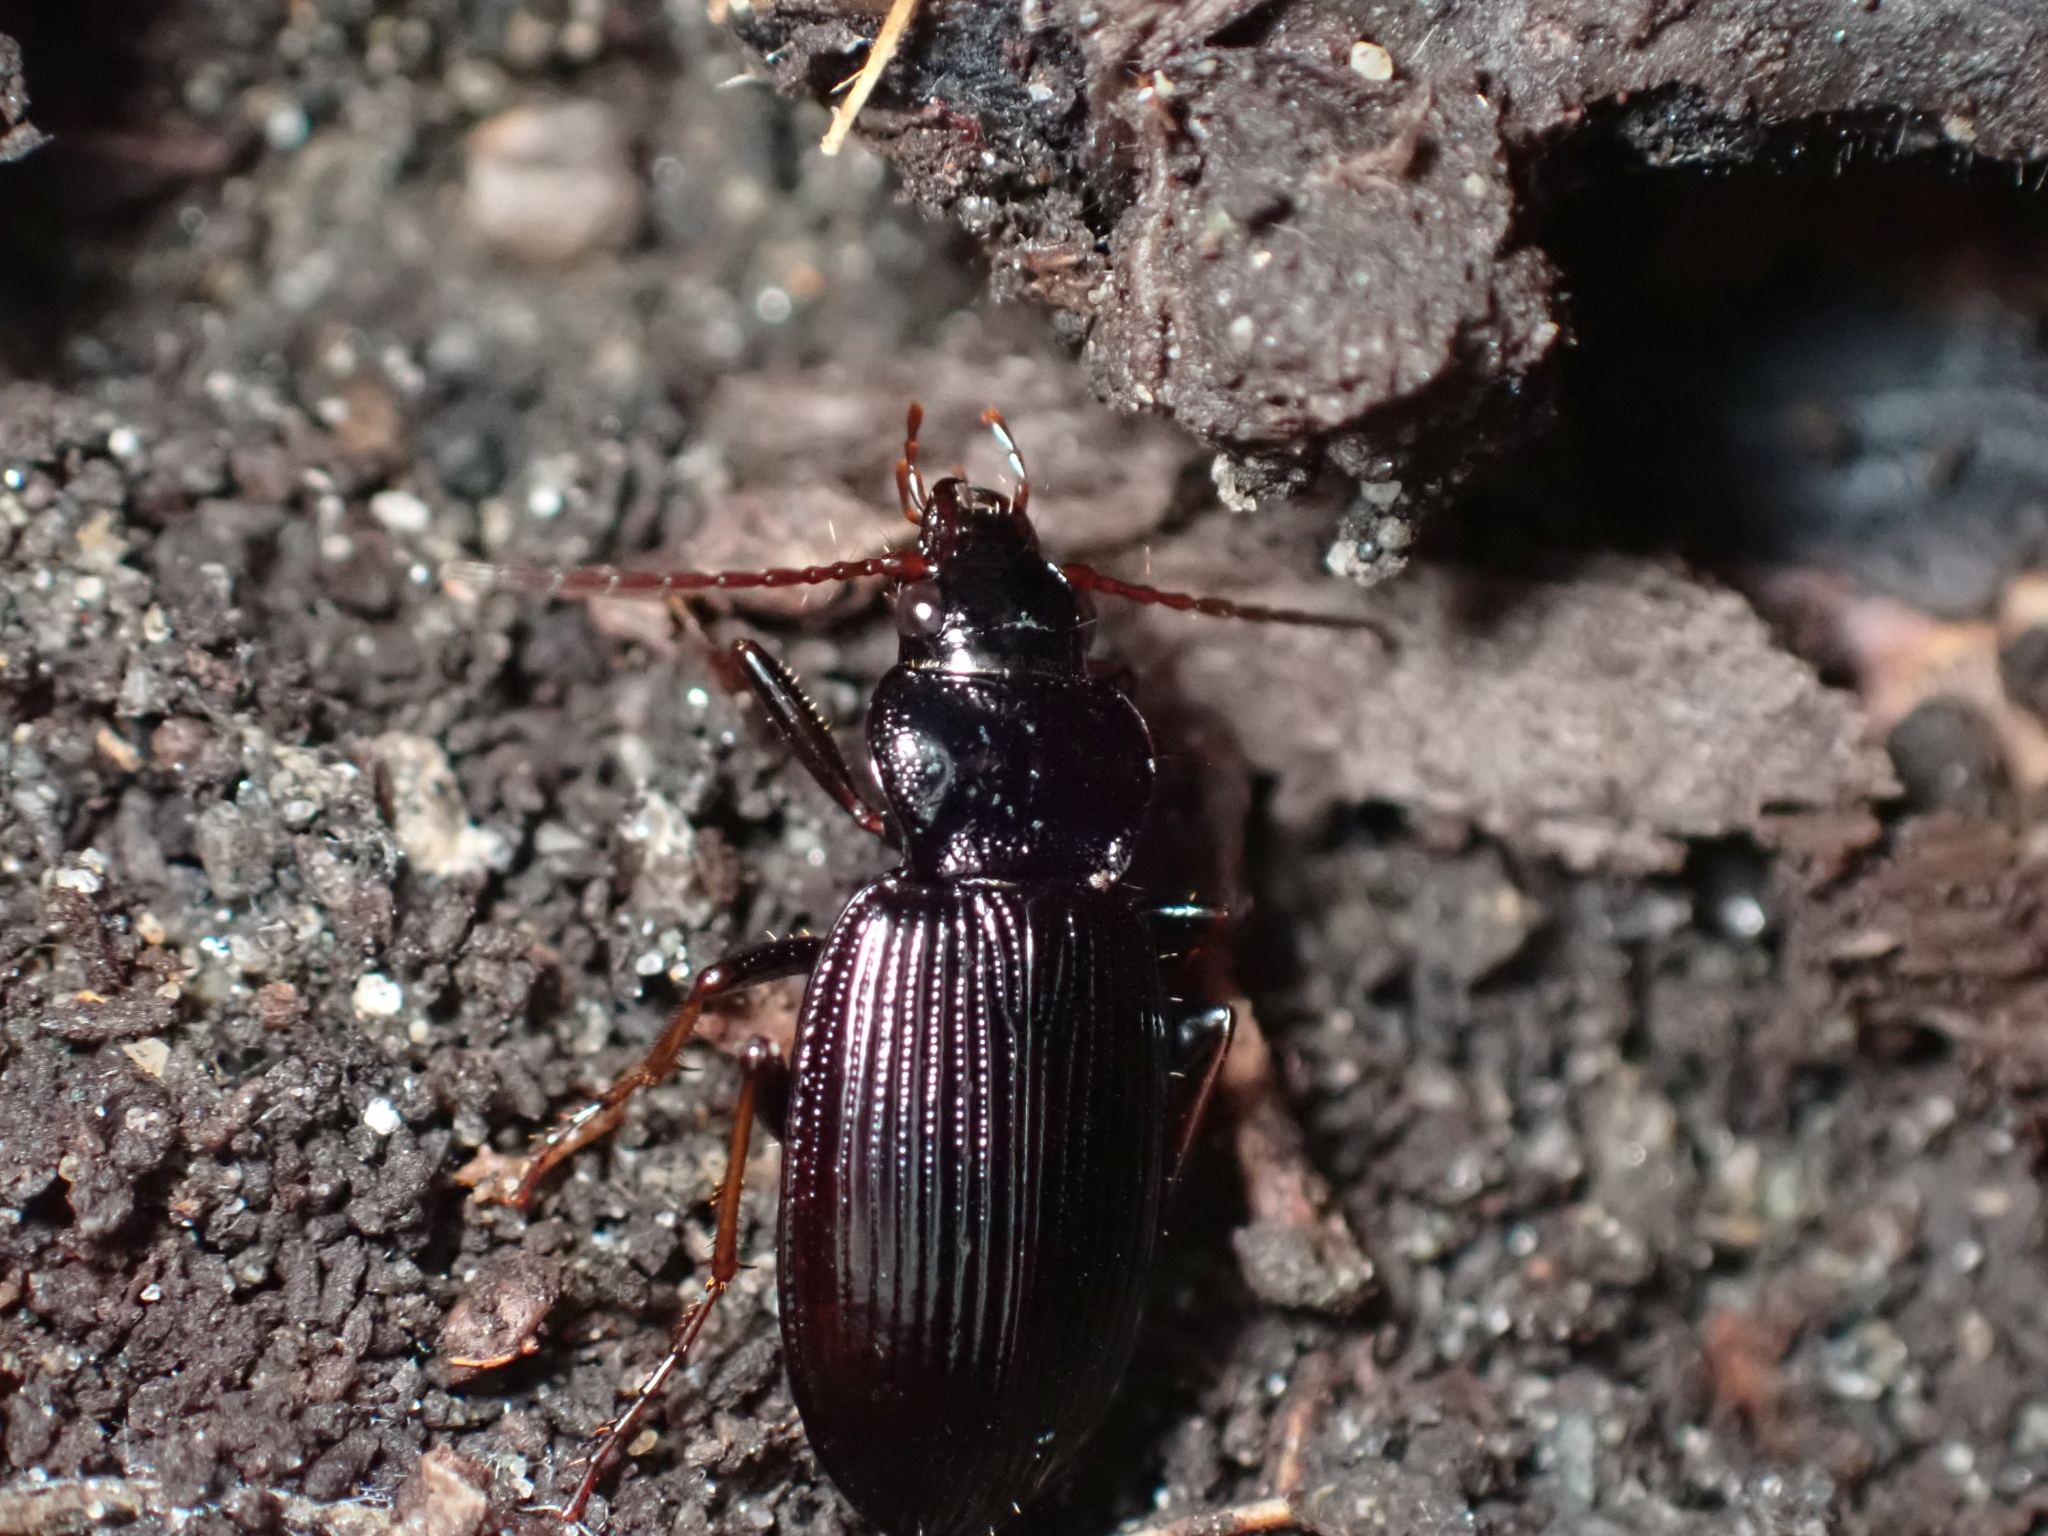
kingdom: Animalia
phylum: Arthropoda
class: Insecta
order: Coleoptera
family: Carabidae
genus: Nebria
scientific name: Nebria brevicollis
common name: Short-necked gazelle beetle
